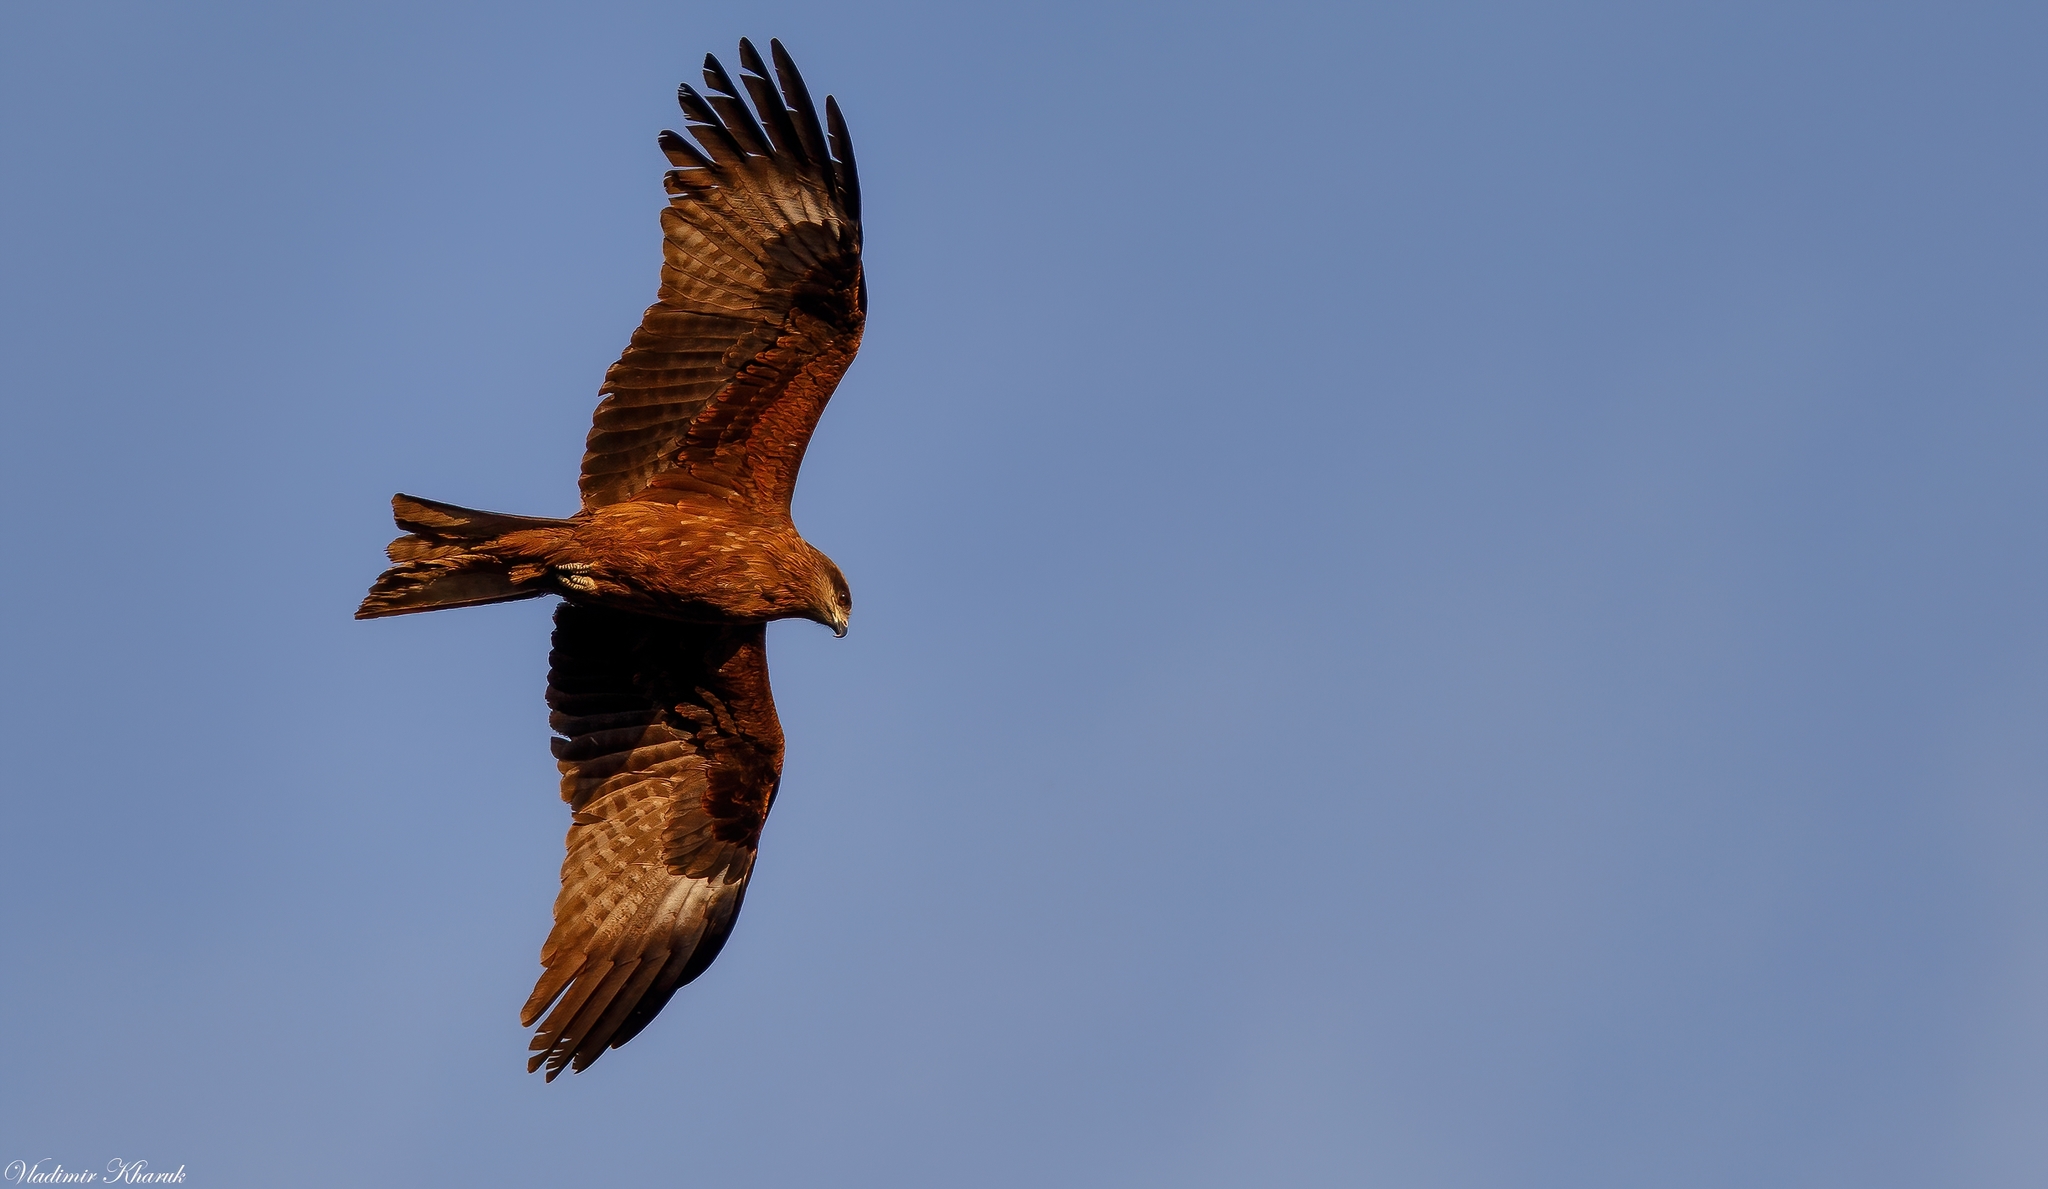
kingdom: Animalia
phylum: Chordata
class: Aves
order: Accipitriformes
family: Accipitridae
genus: Milvus
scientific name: Milvus migrans
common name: Black kite
